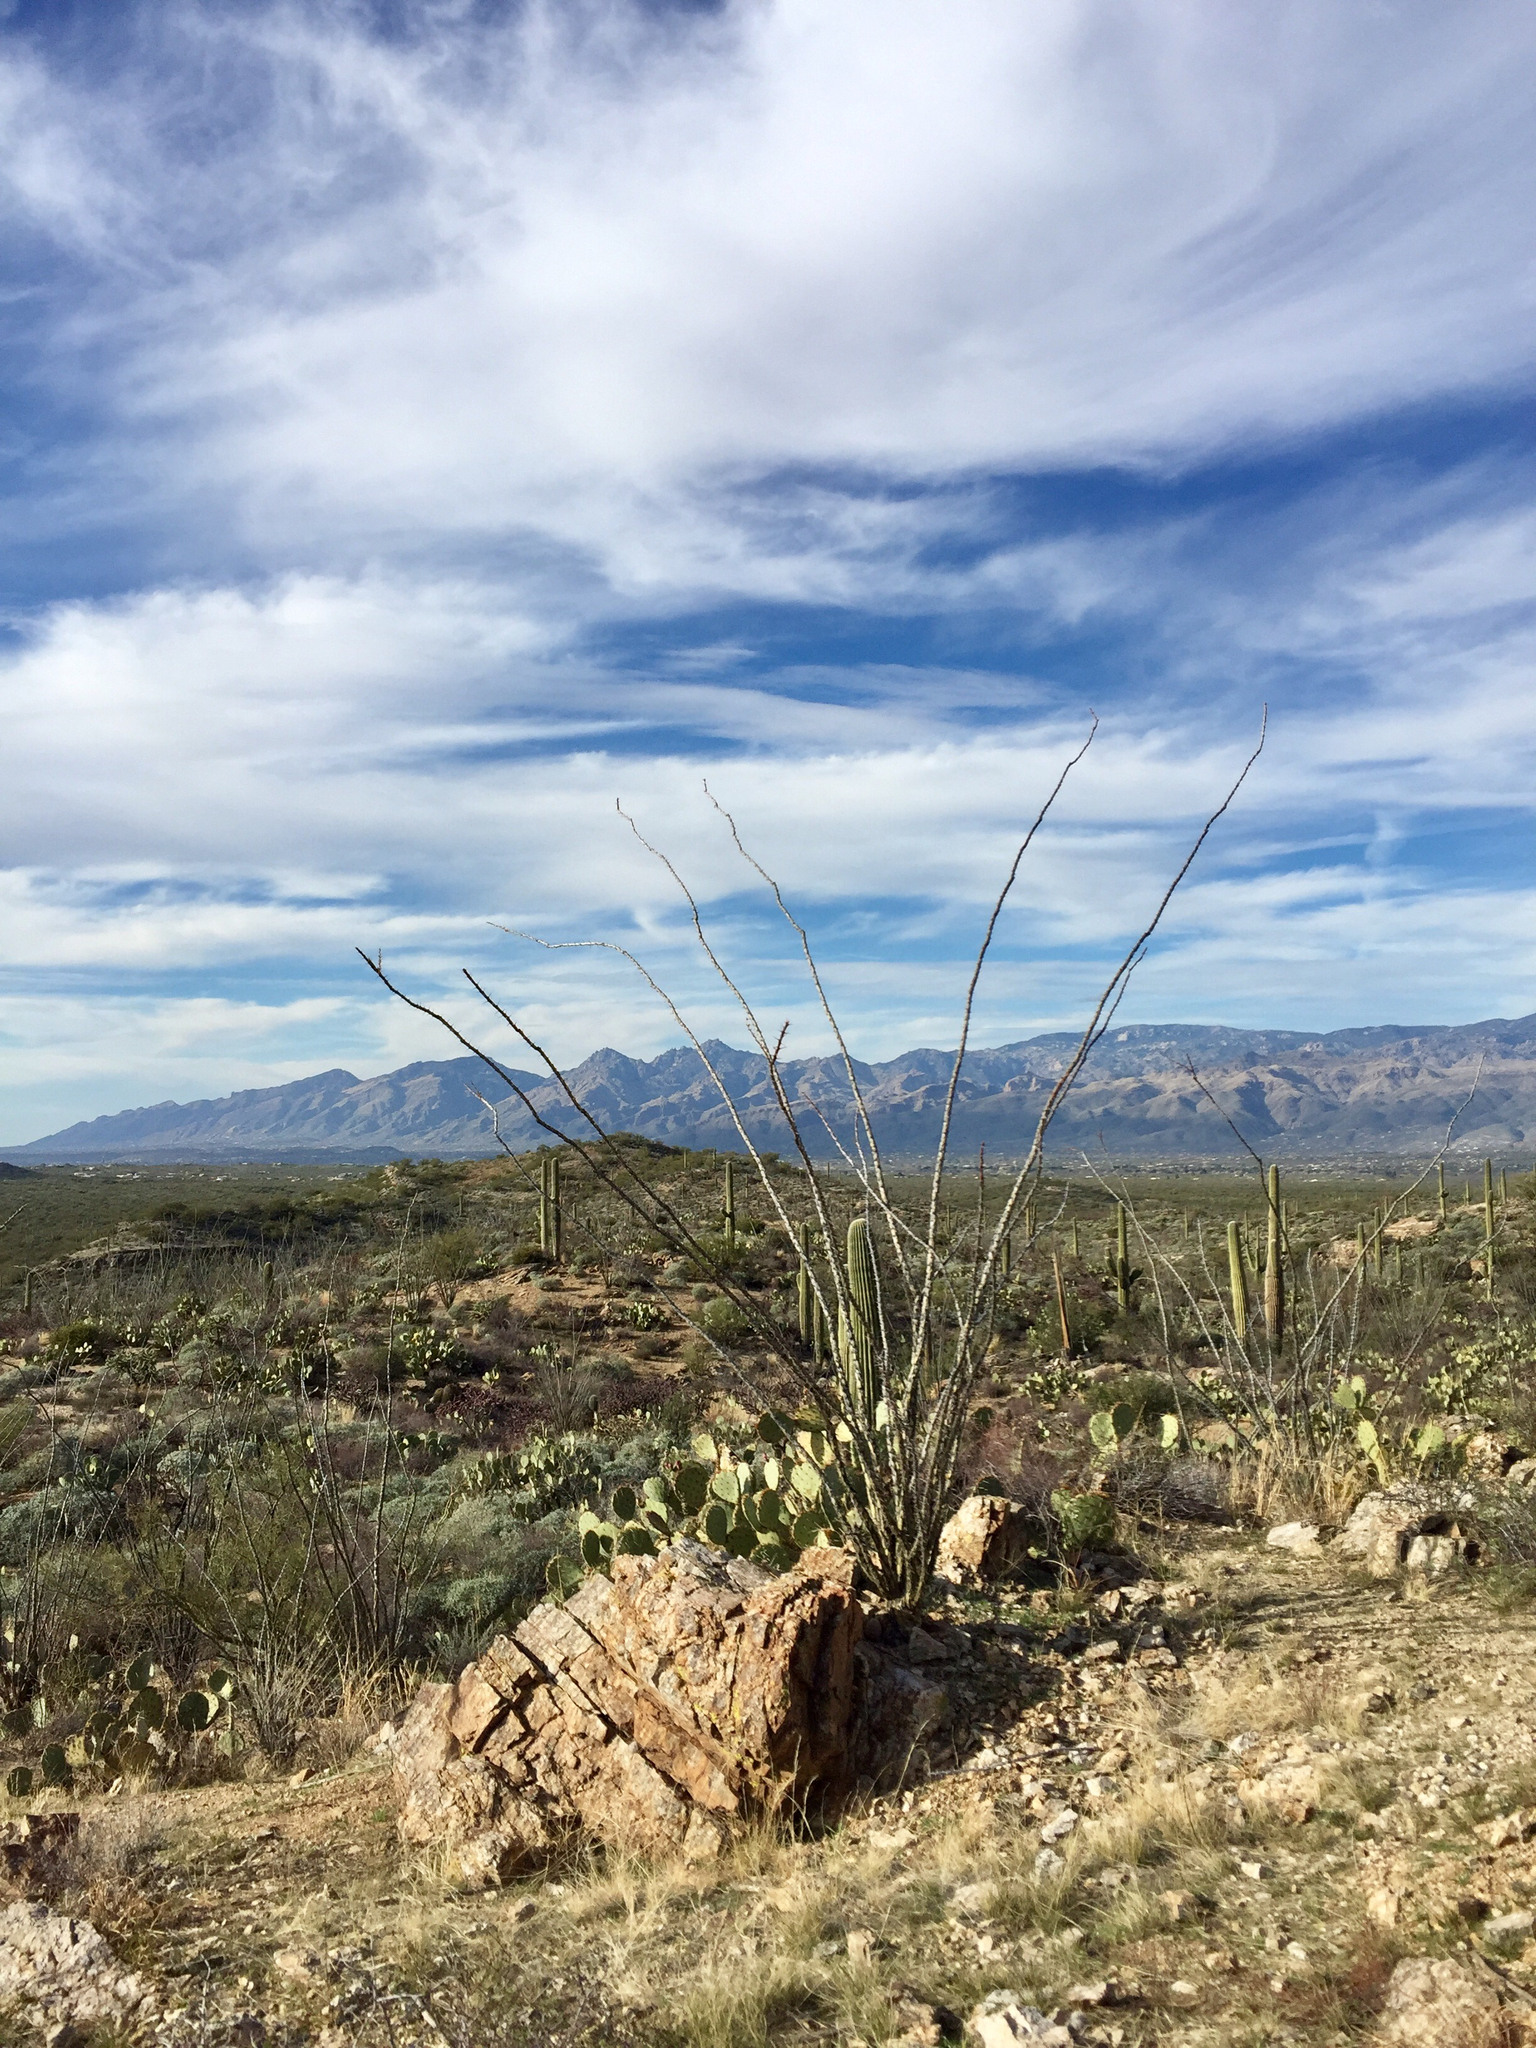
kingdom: Plantae
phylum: Tracheophyta
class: Magnoliopsida
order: Ericales
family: Fouquieriaceae
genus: Fouquieria
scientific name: Fouquieria splendens
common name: Vine-cactus
